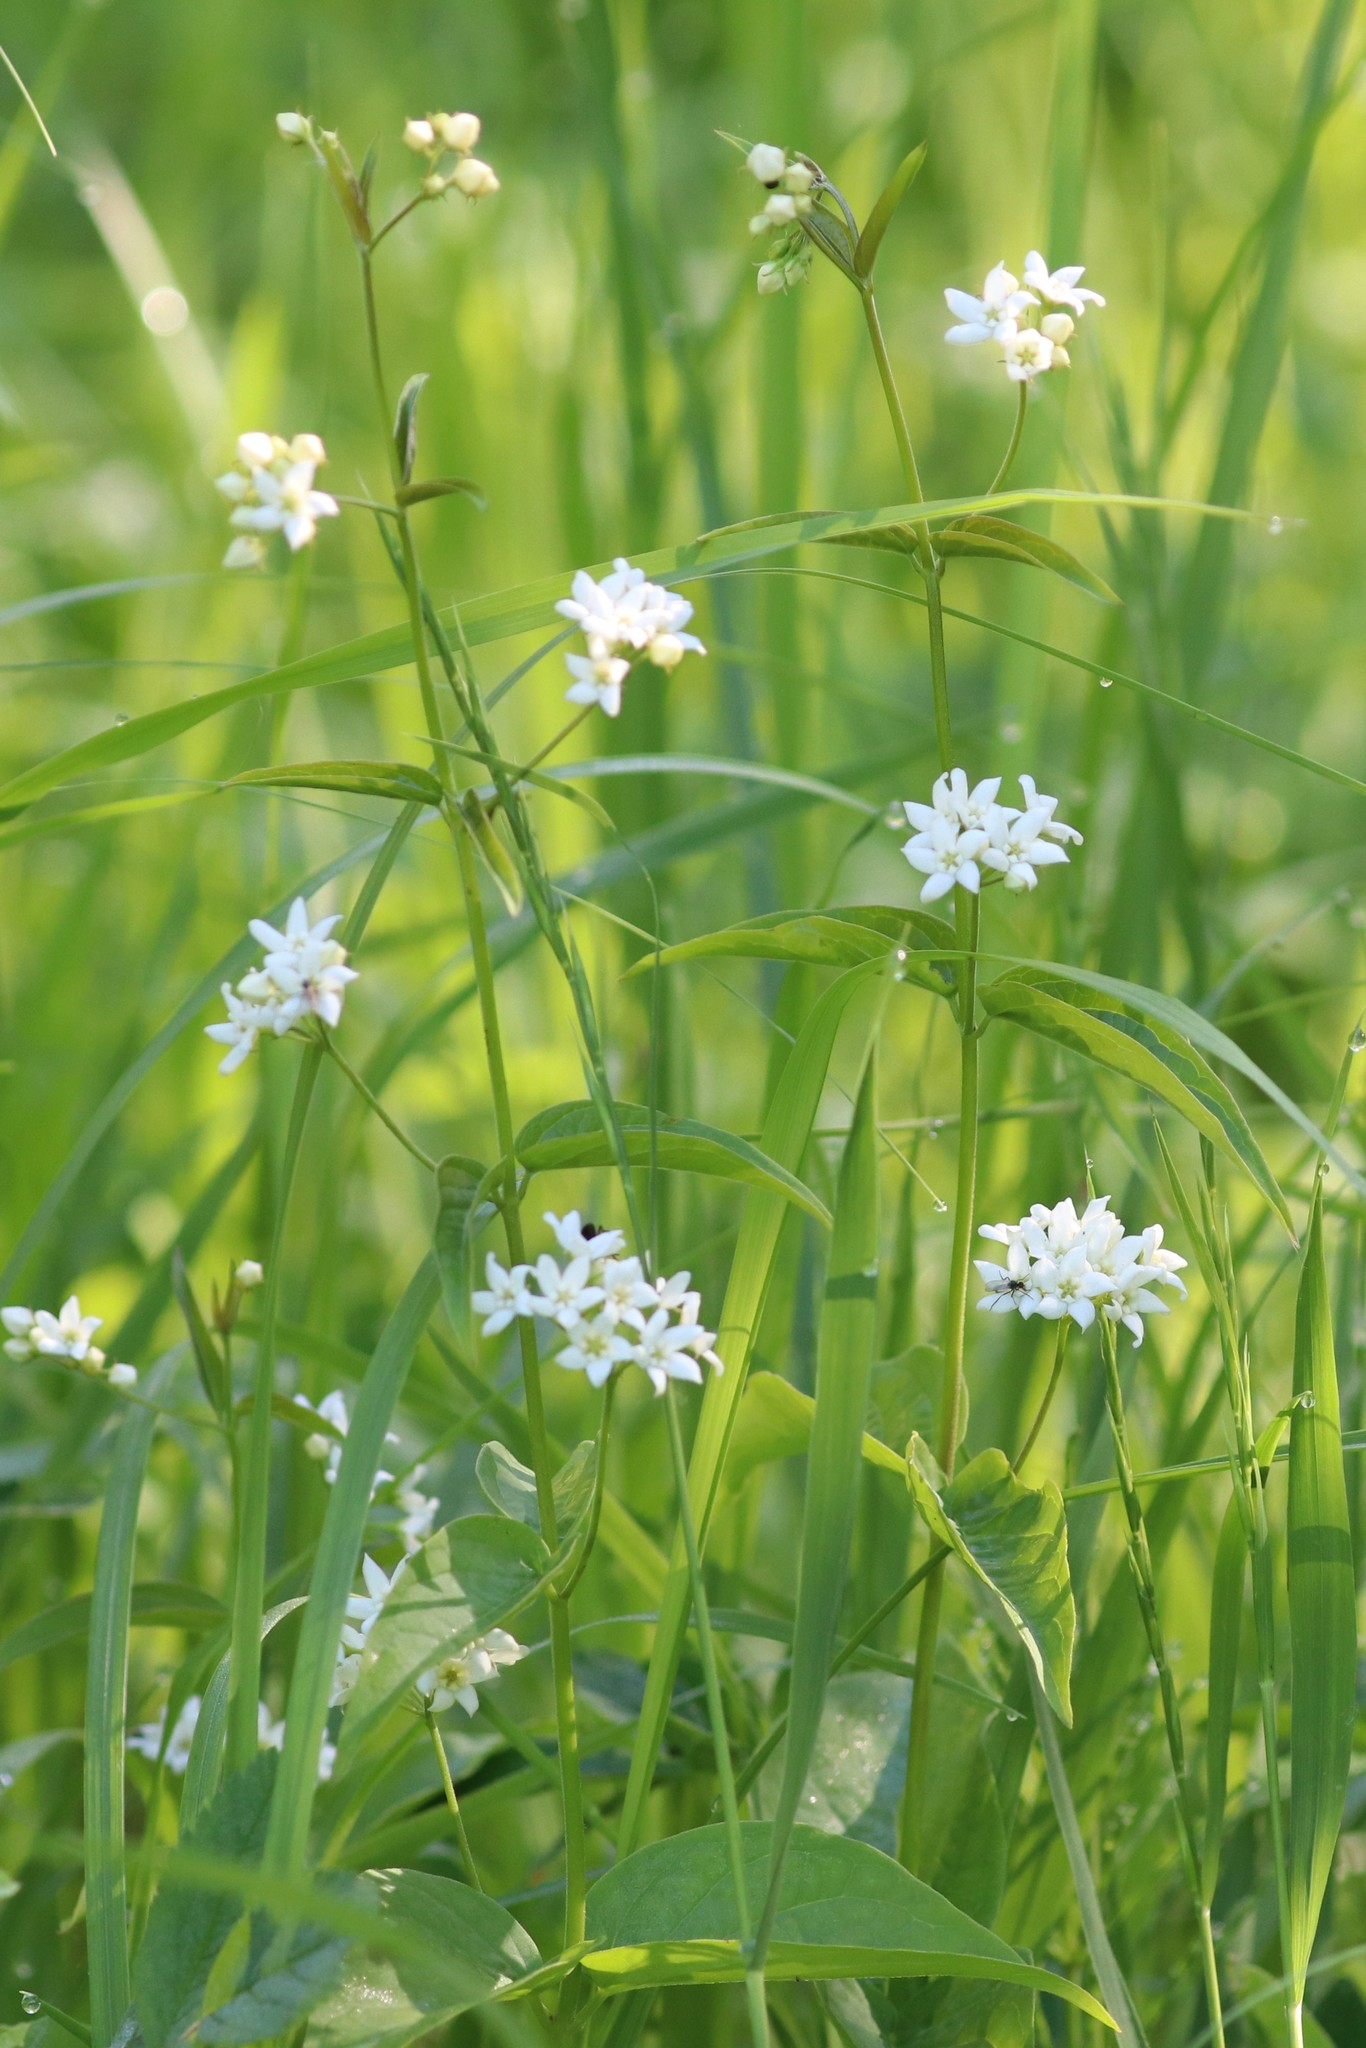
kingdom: Plantae
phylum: Tracheophyta
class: Magnoliopsida
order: Gentianales
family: Apocynaceae
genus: Vincetoxicum
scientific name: Vincetoxicum hirundinaria
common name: White swallowwort
